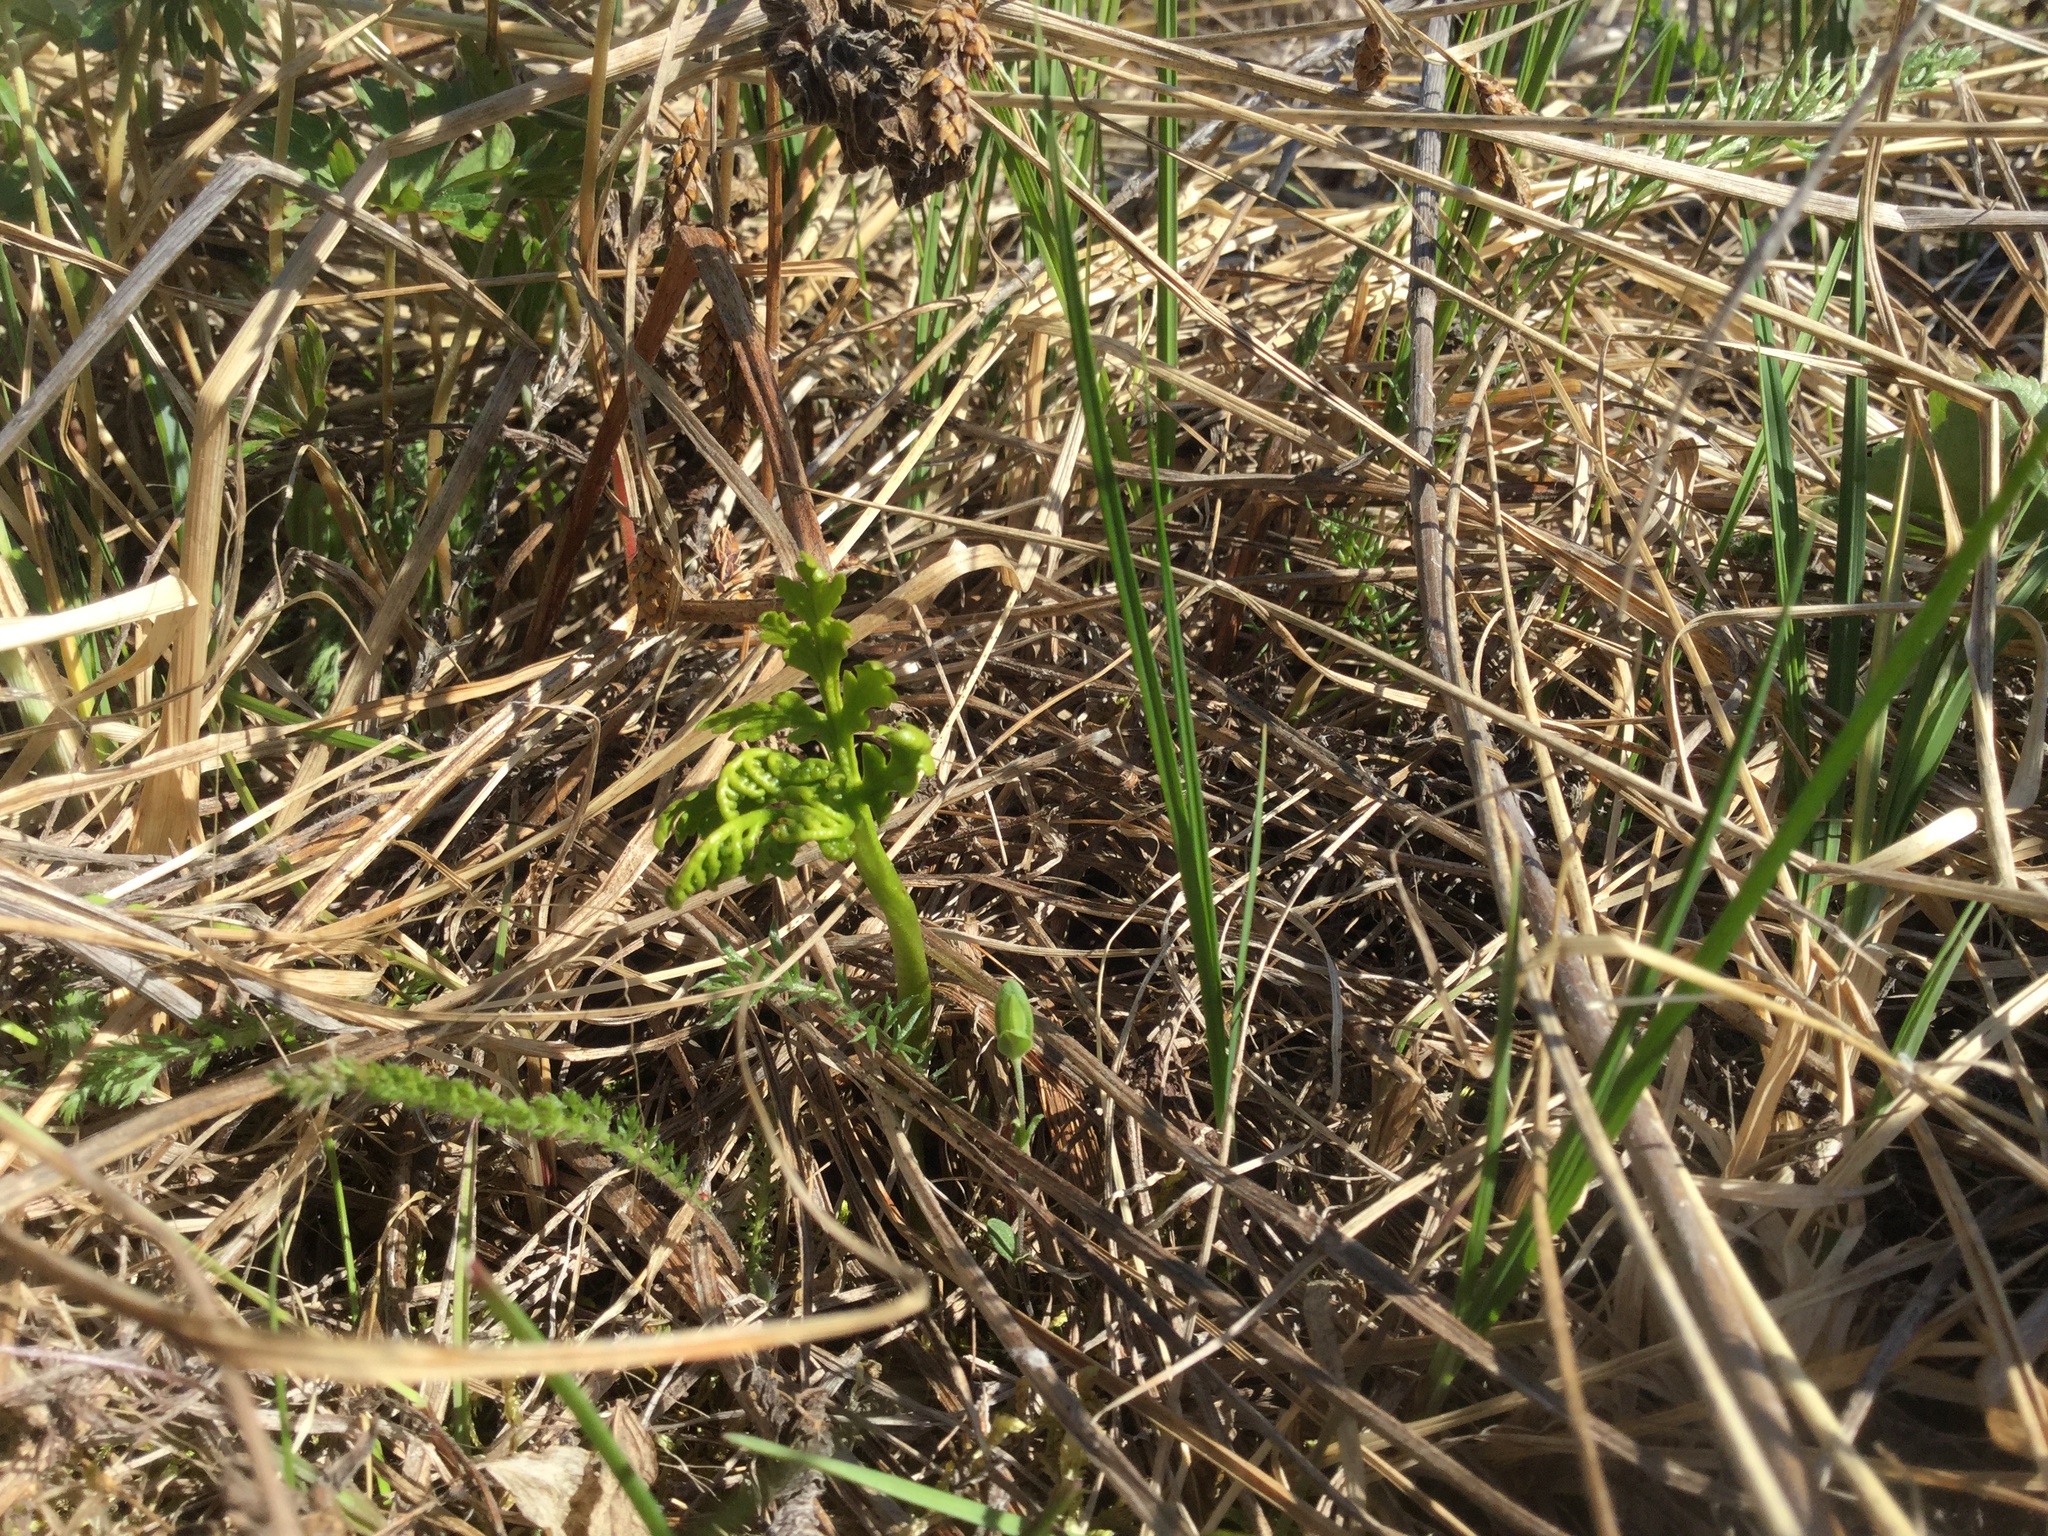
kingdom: Plantae
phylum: Tracheophyta
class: Polypodiopsida
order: Ophioglossales
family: Ophioglossaceae
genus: Botrychium
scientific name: Botrychium lanceolatum
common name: Lance-leaved moonwort
